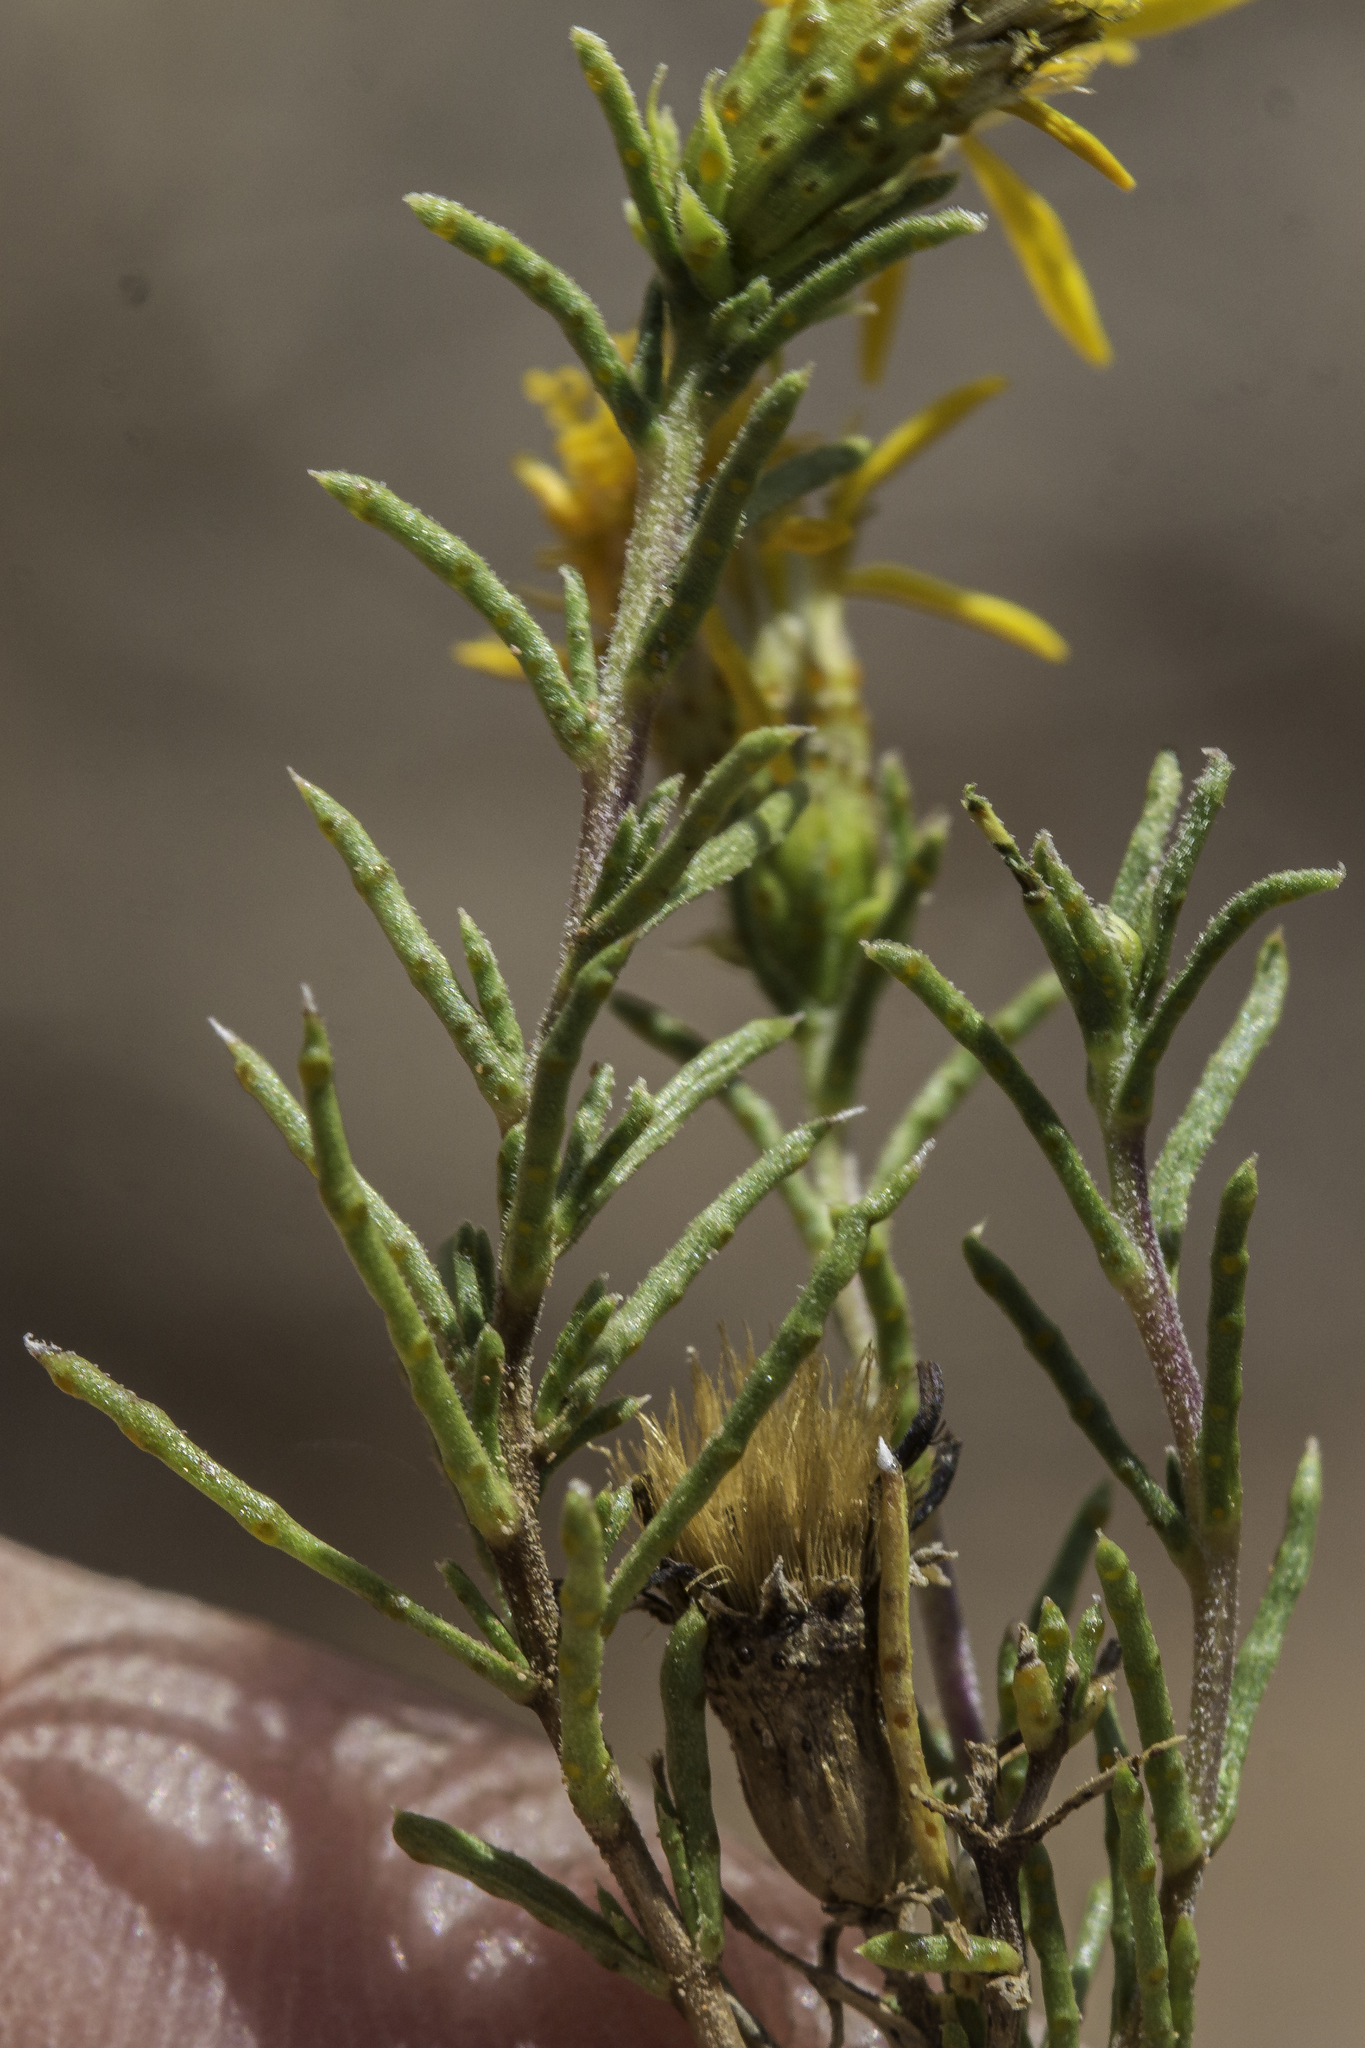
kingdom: Plantae
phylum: Tracheophyta
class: Magnoliopsida
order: Asterales
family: Asteraceae
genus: Thymophylla
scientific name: Thymophylla acerosa
